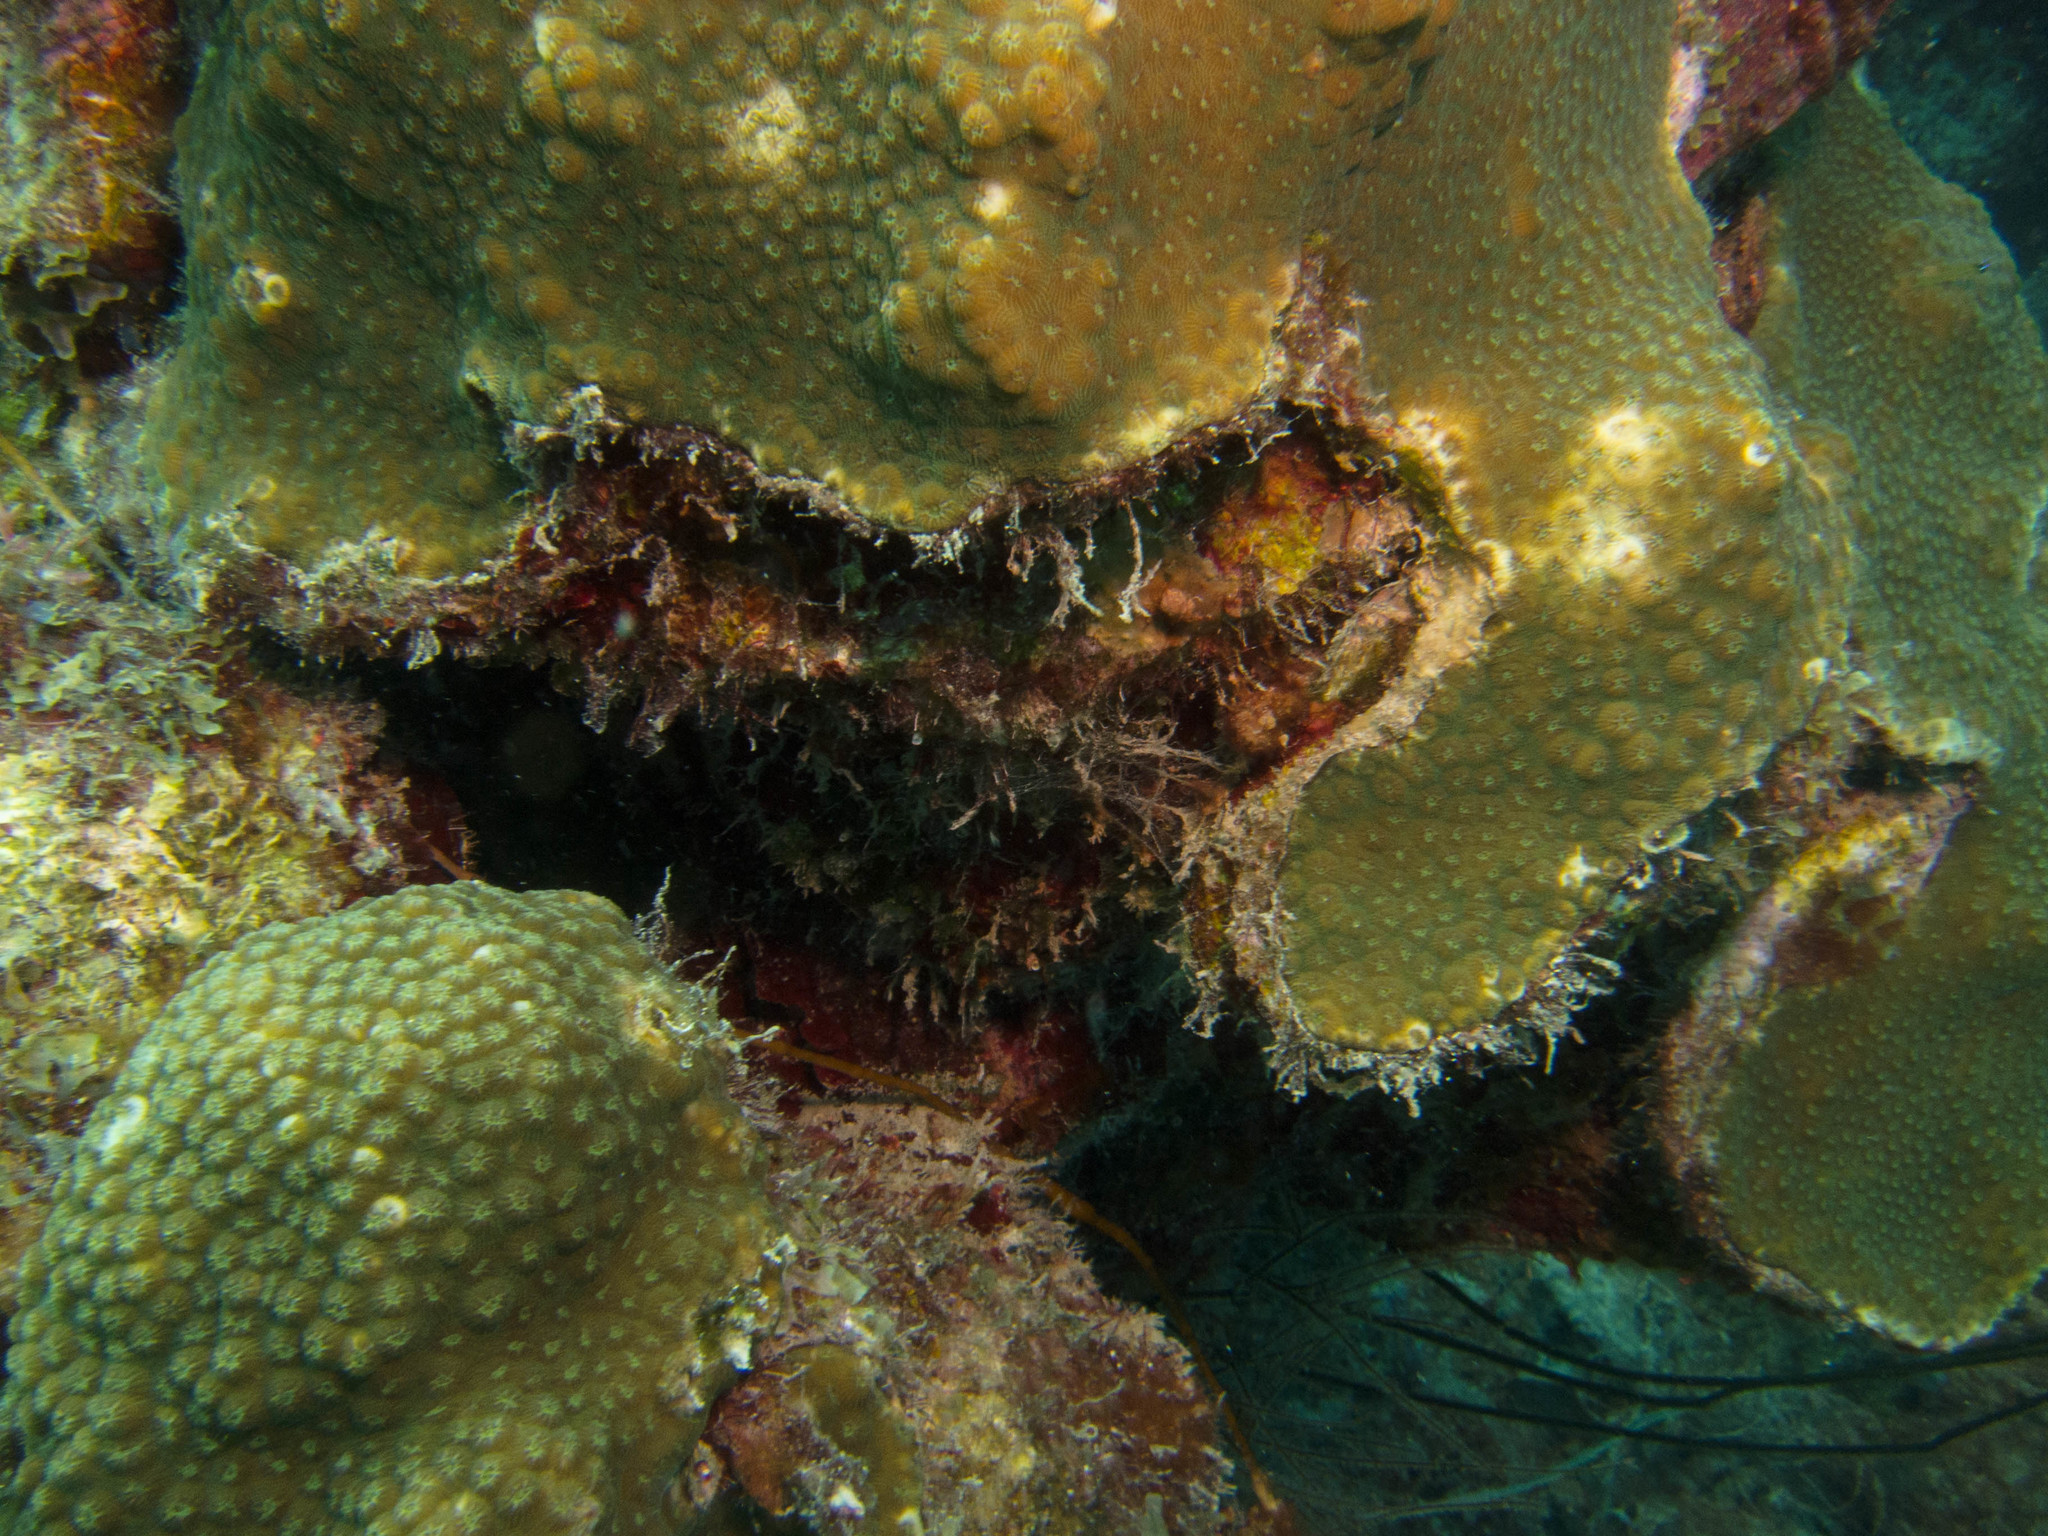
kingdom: Animalia
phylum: Cnidaria
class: Anthozoa
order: Scleractinia
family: Merulinidae
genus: Orbicella
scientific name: Orbicella franksi
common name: Bumpy star coral
